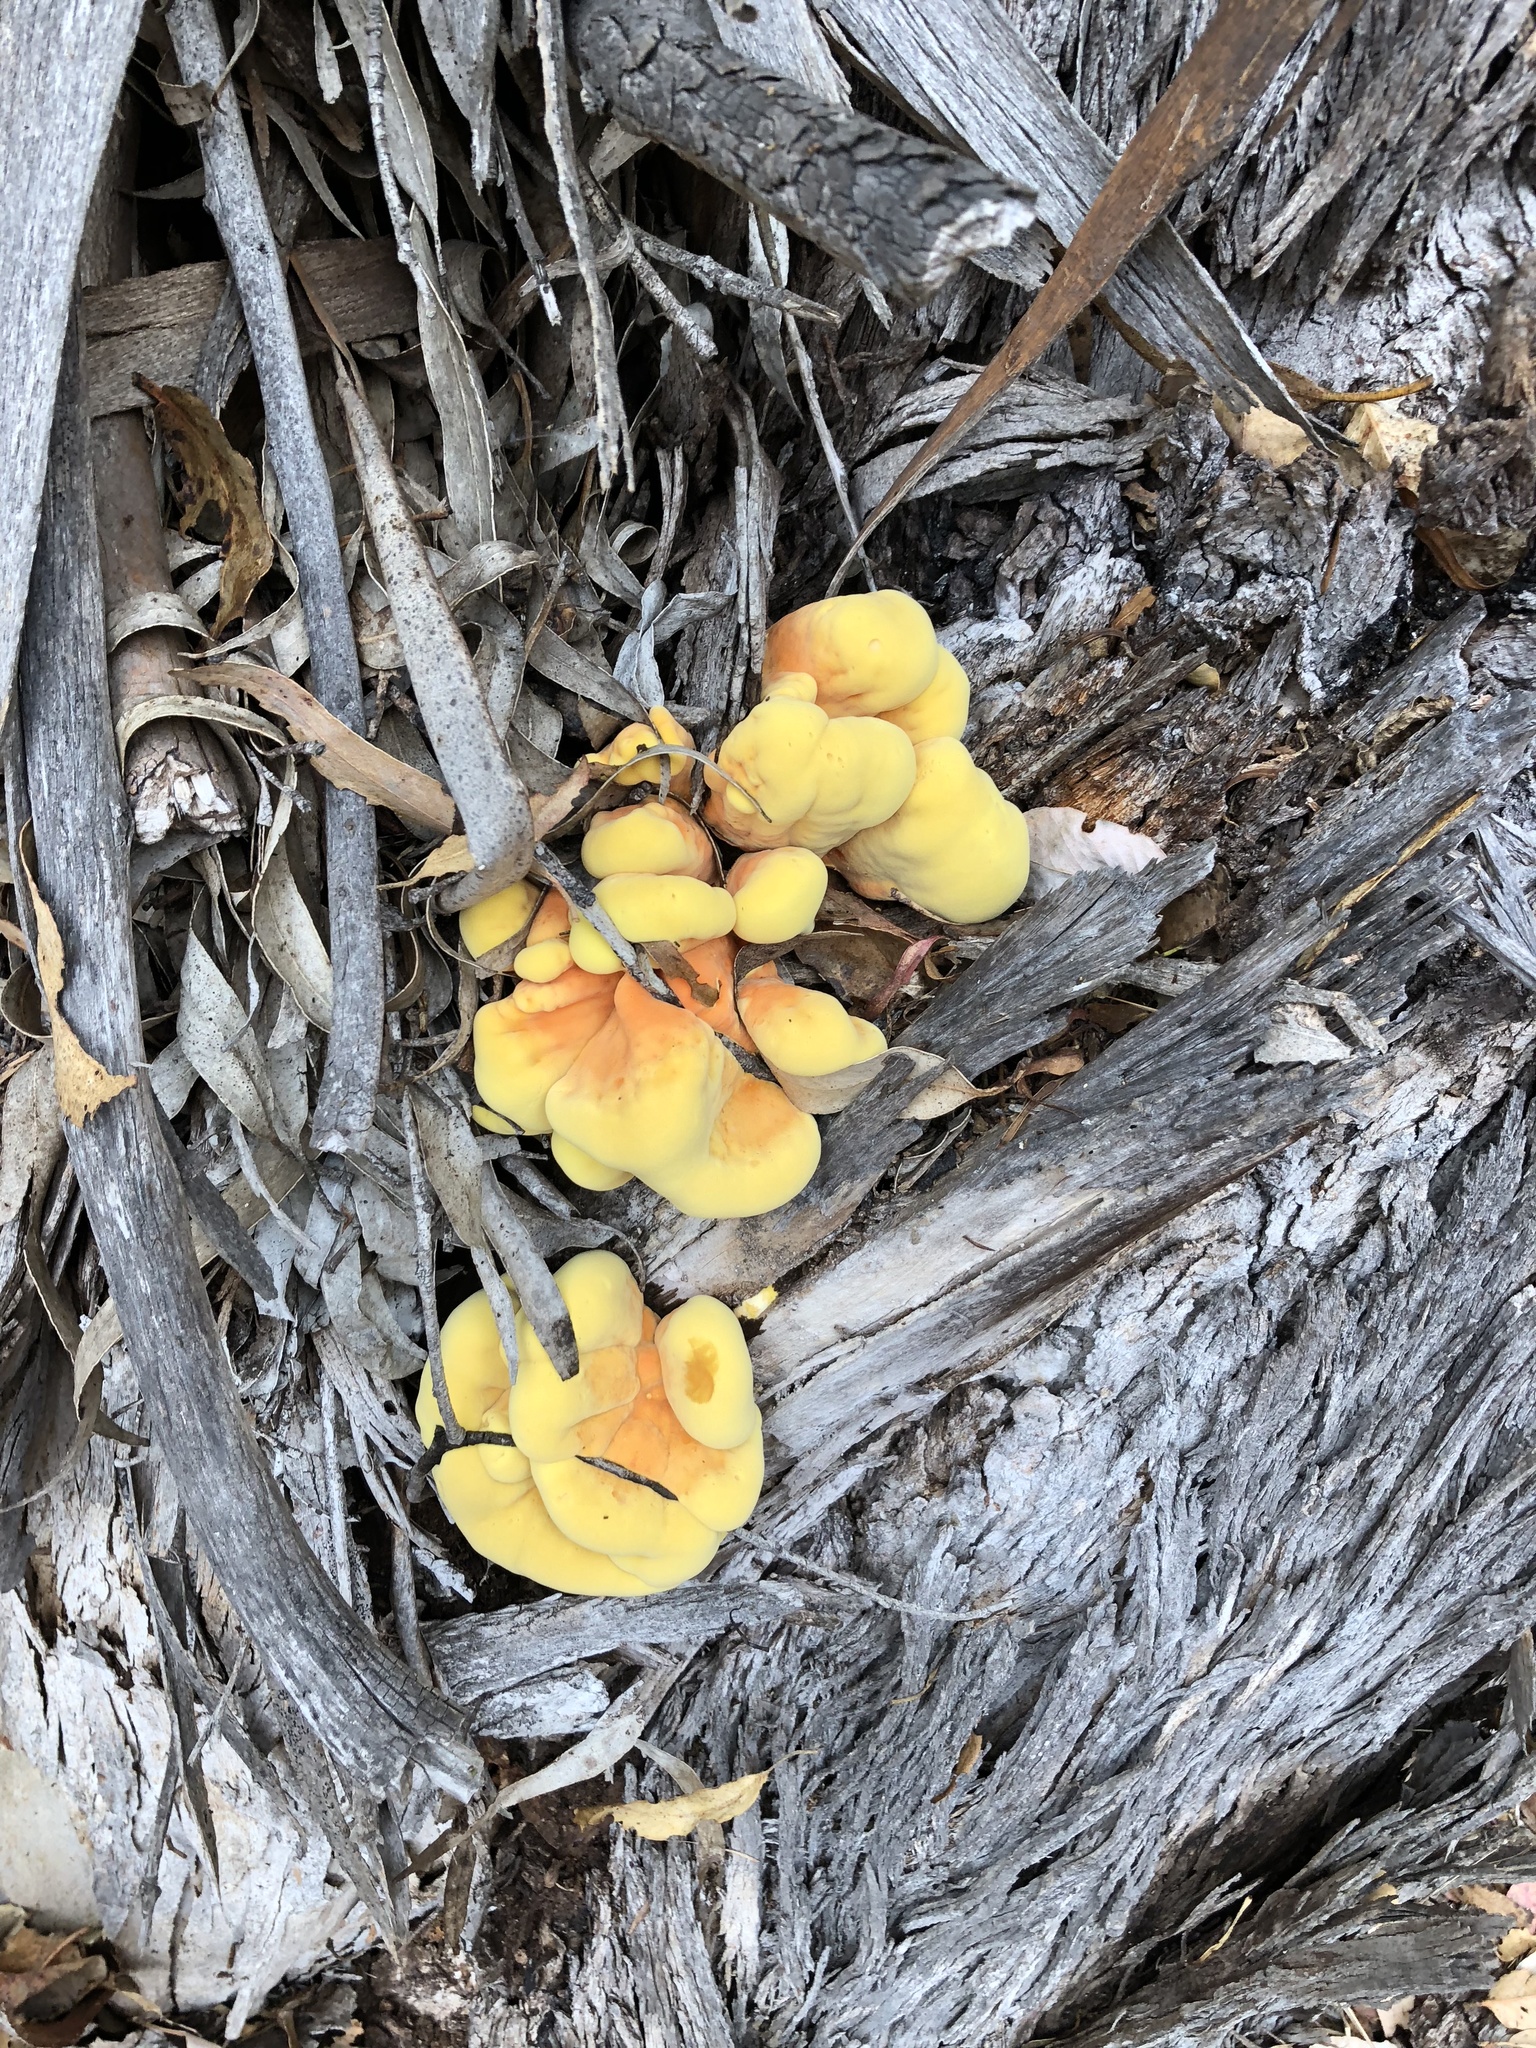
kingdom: Fungi
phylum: Basidiomycota
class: Agaricomycetes
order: Polyporales
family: Laetiporaceae
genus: Laetiporus
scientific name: Laetiporus gilbertsonii
